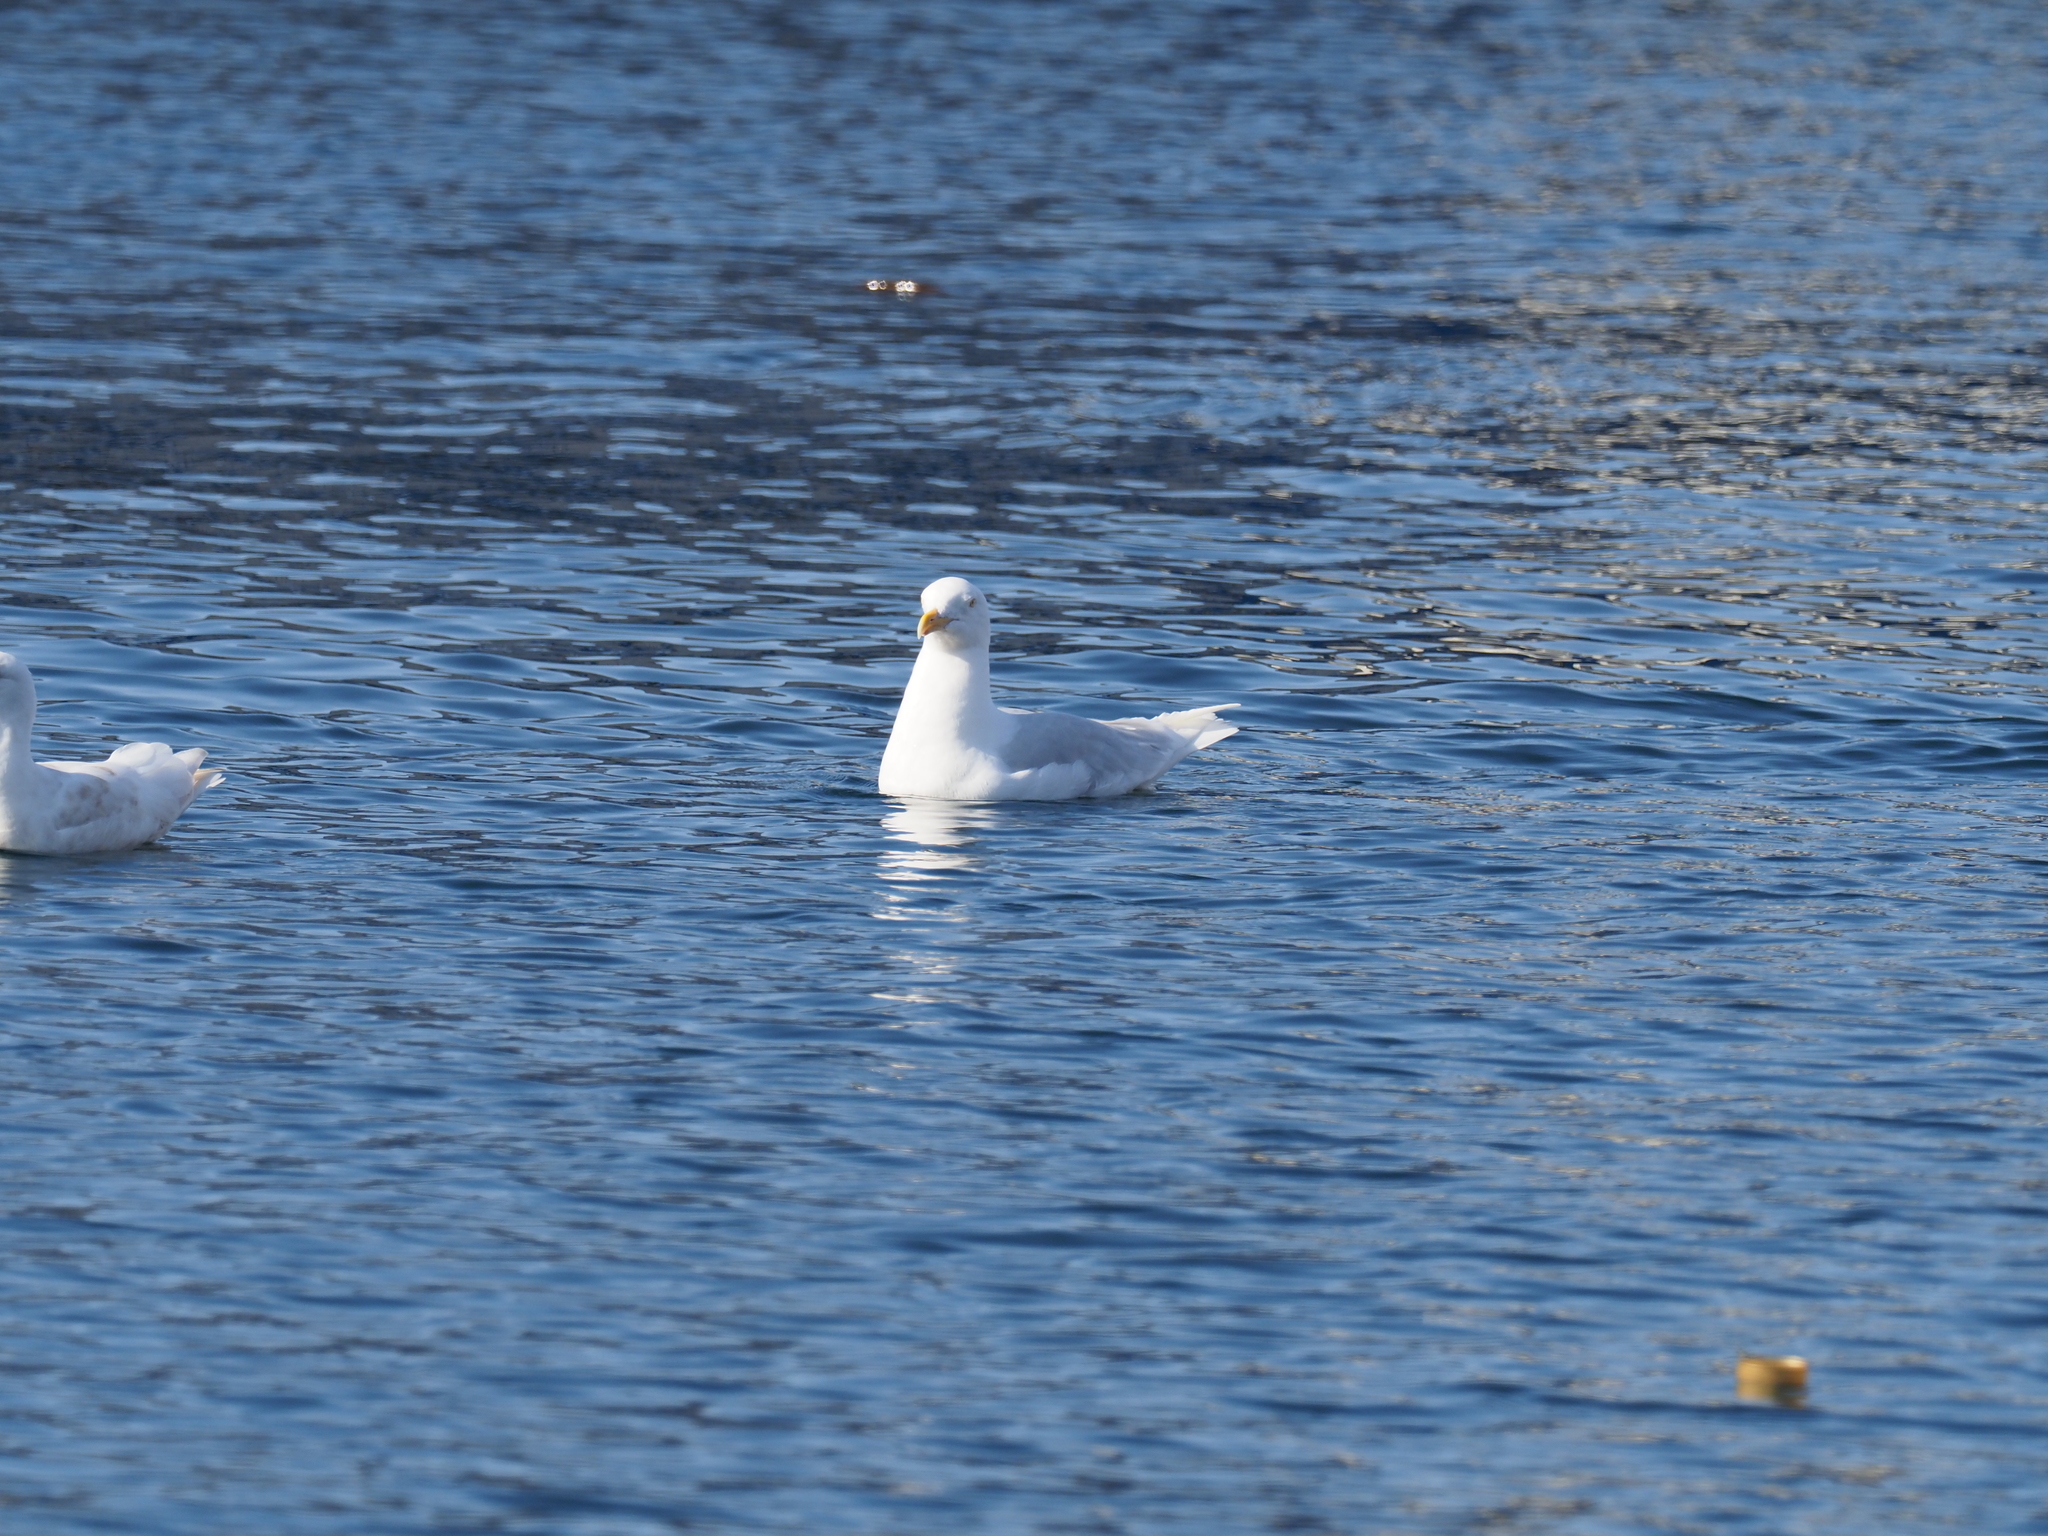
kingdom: Animalia
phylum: Chordata
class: Aves
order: Charadriiformes
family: Laridae
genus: Larus
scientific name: Larus hyperboreus
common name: Glaucous gull
